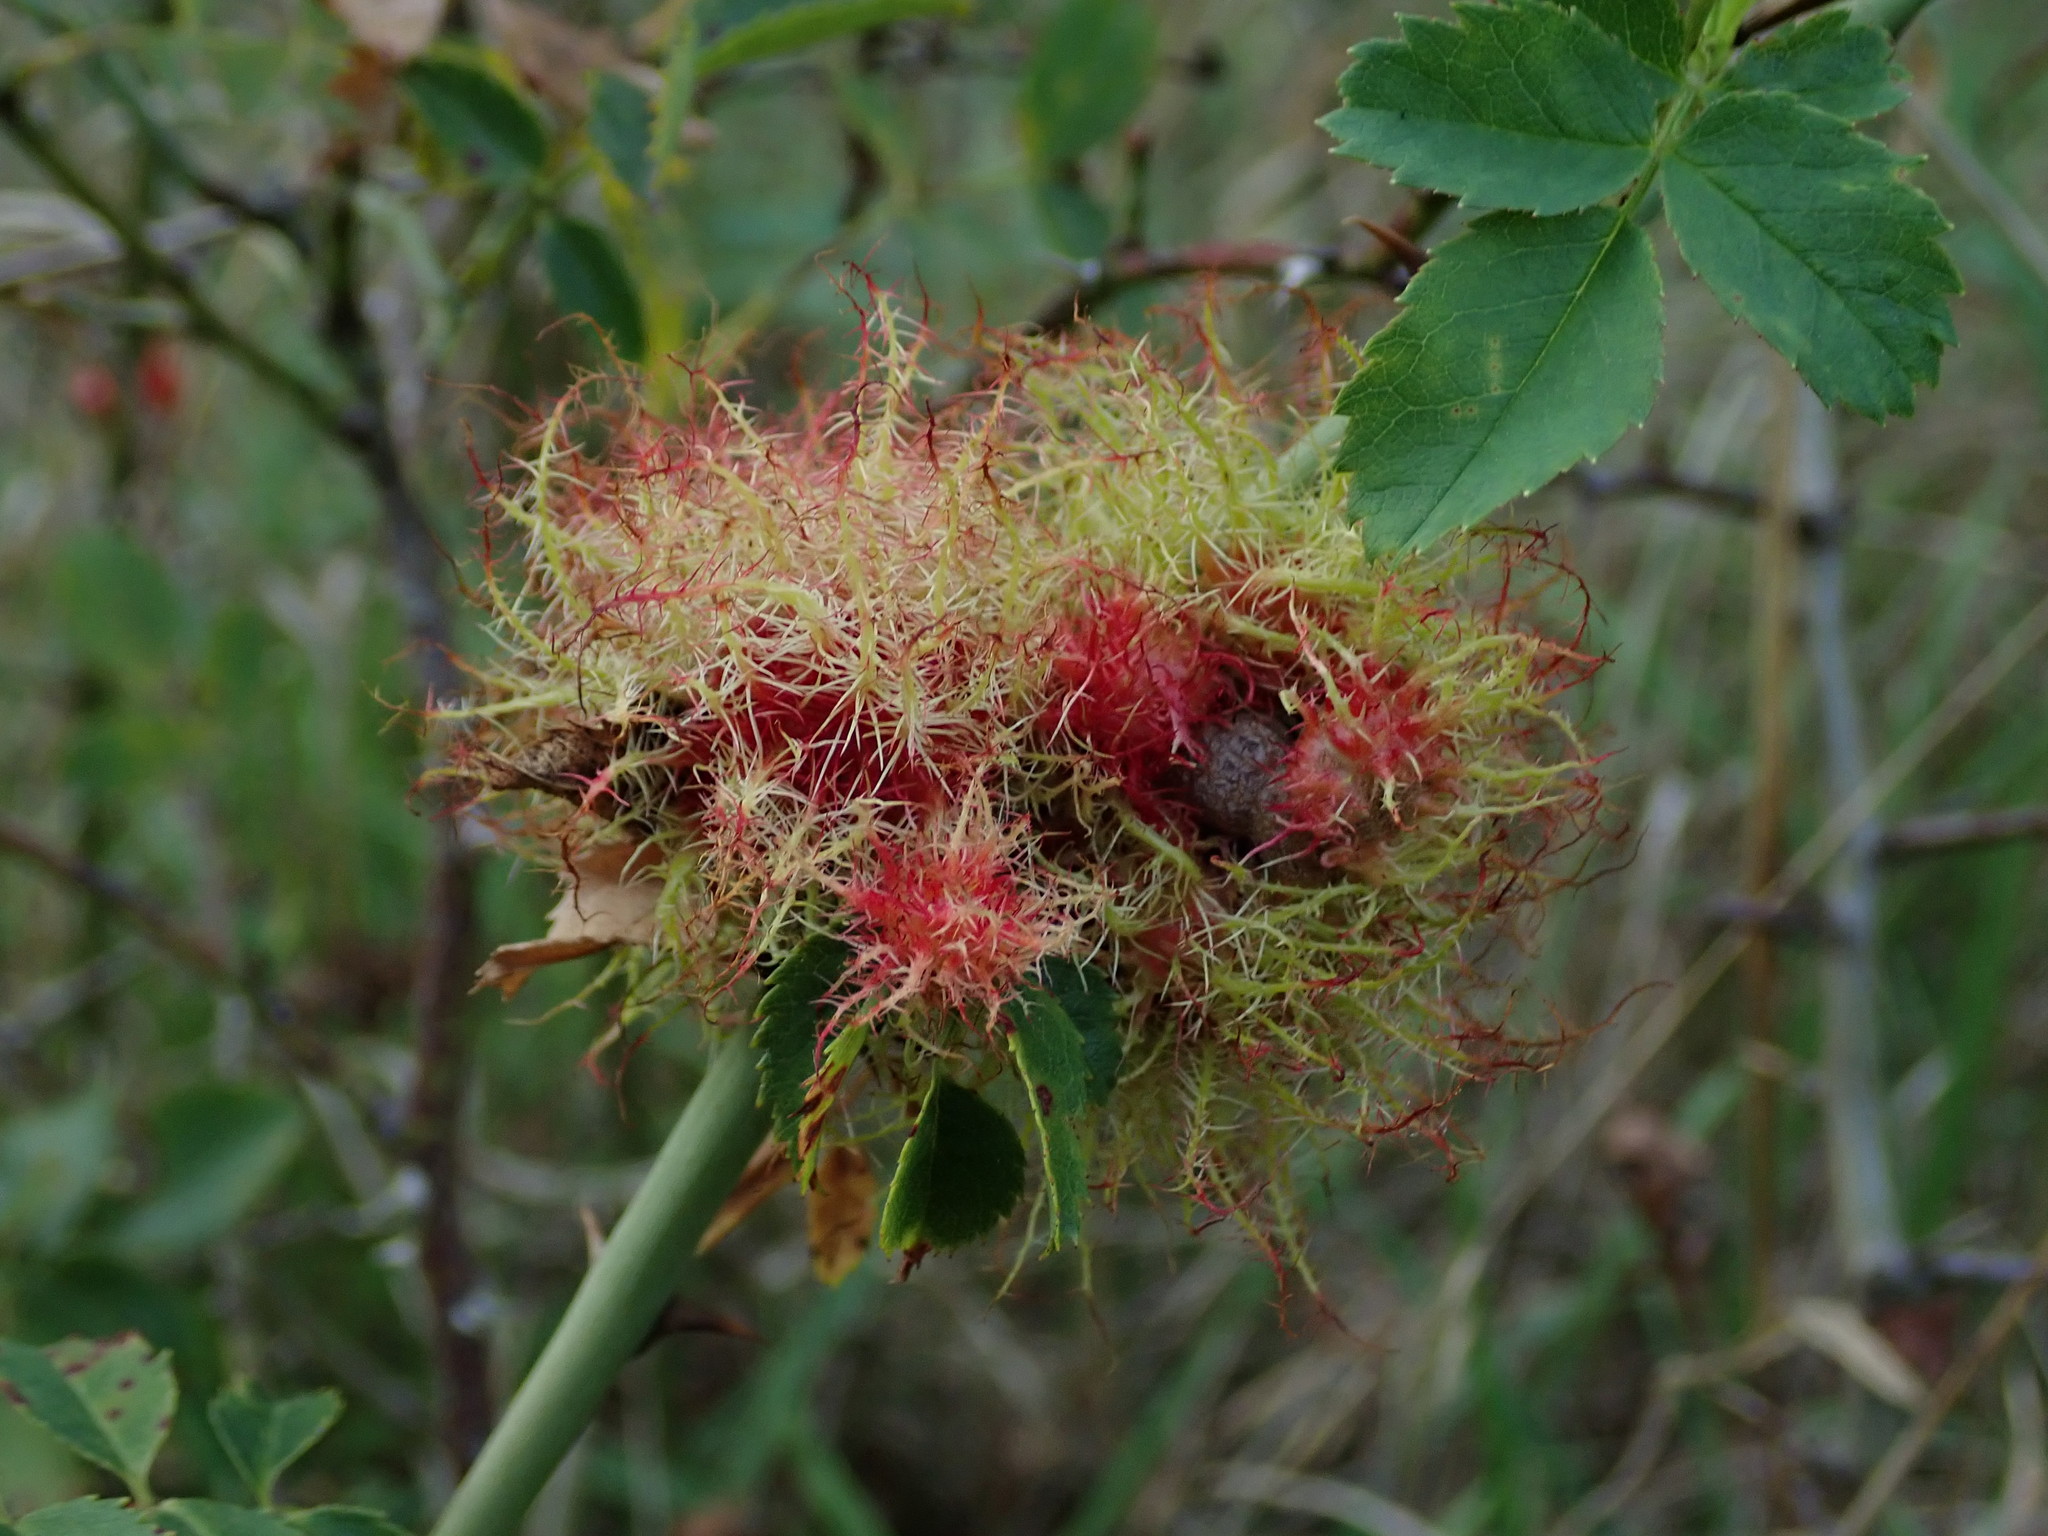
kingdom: Animalia
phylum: Arthropoda
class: Insecta
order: Hymenoptera
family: Cynipidae
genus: Diplolepis
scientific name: Diplolepis rosae
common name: Bedeguar gall
